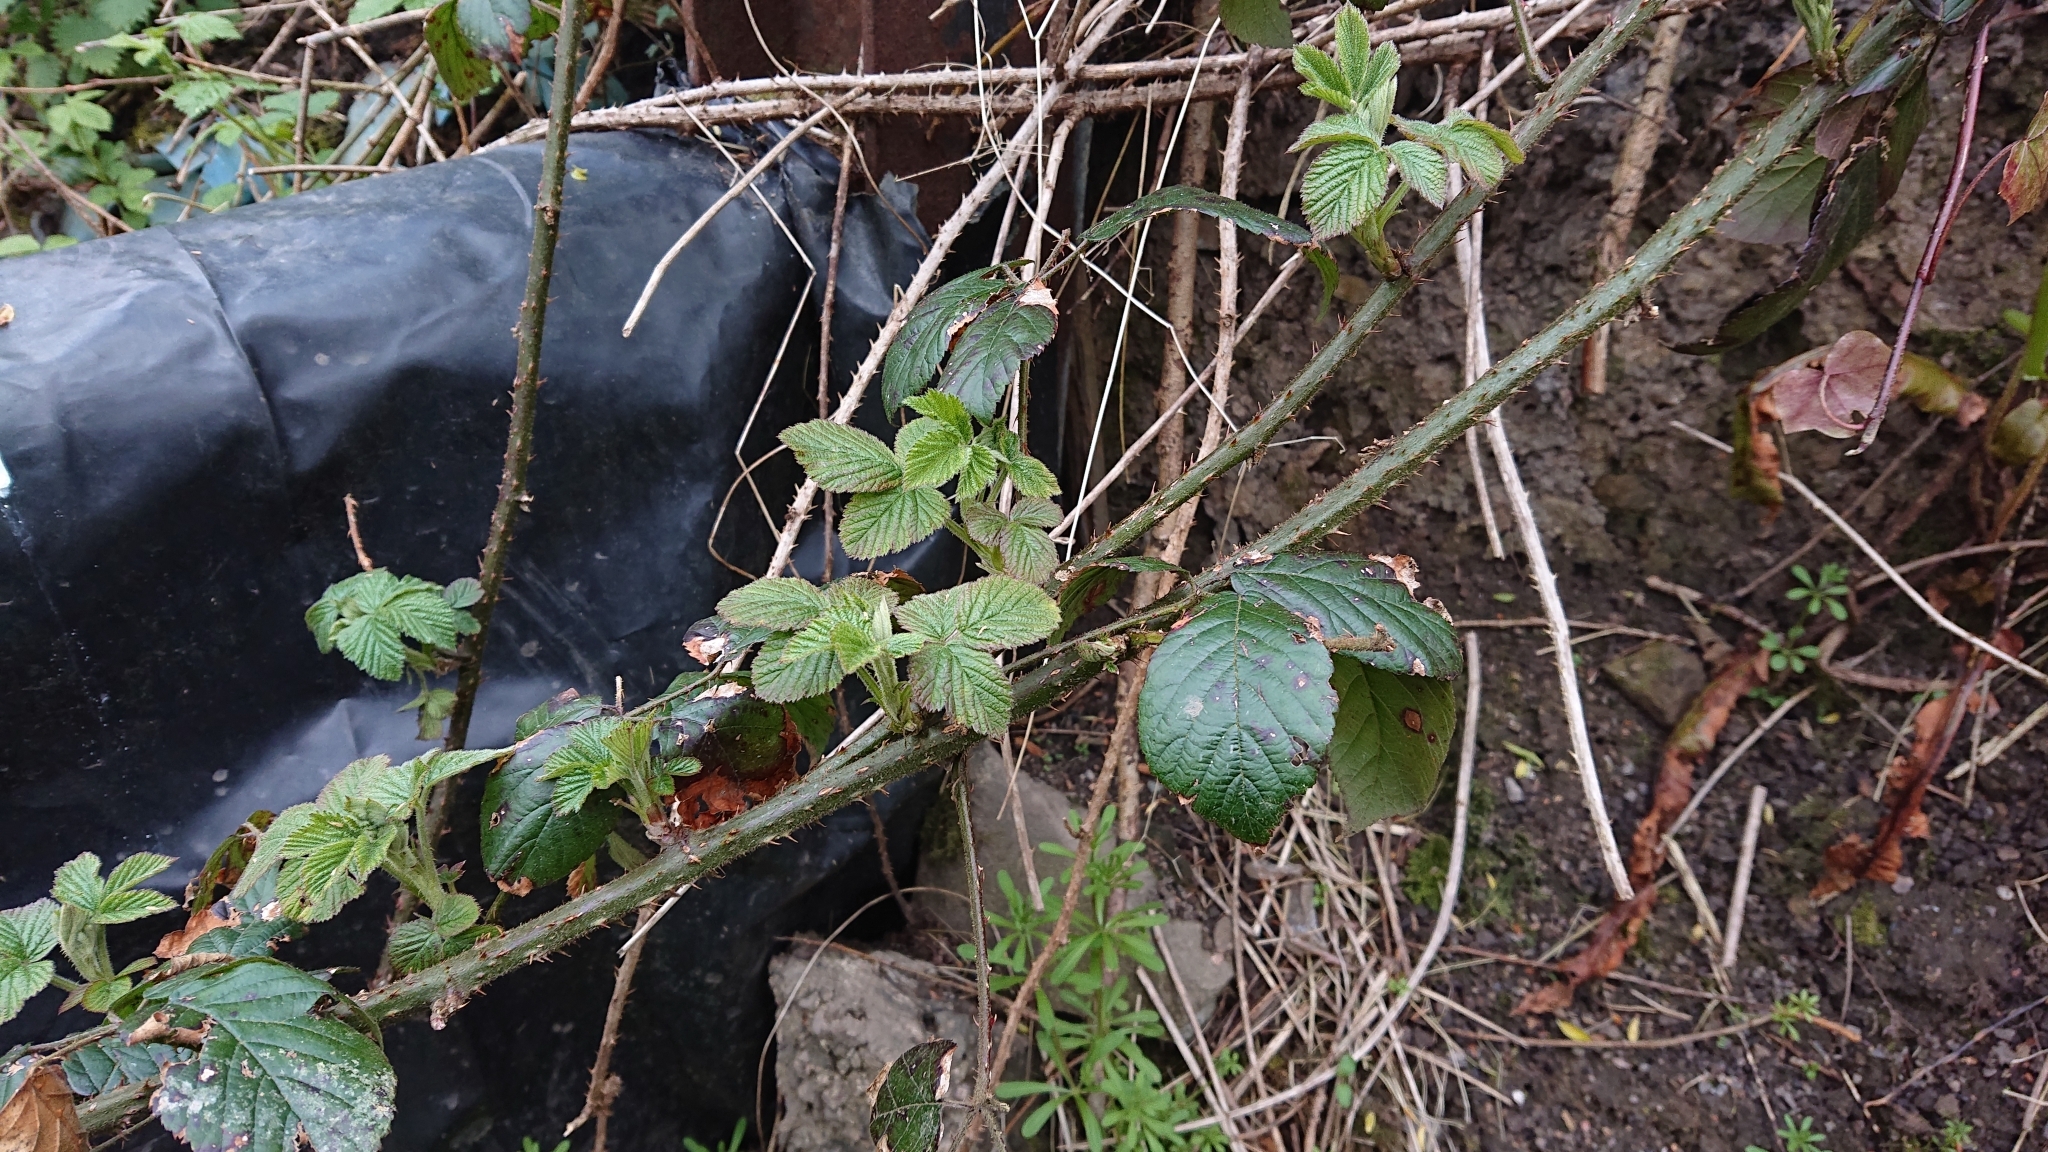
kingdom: Plantae
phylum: Tracheophyta
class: Magnoliopsida
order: Rosales
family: Rosaceae
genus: Rubus
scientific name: Rubus fruticosus
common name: Blackberry, bramble
